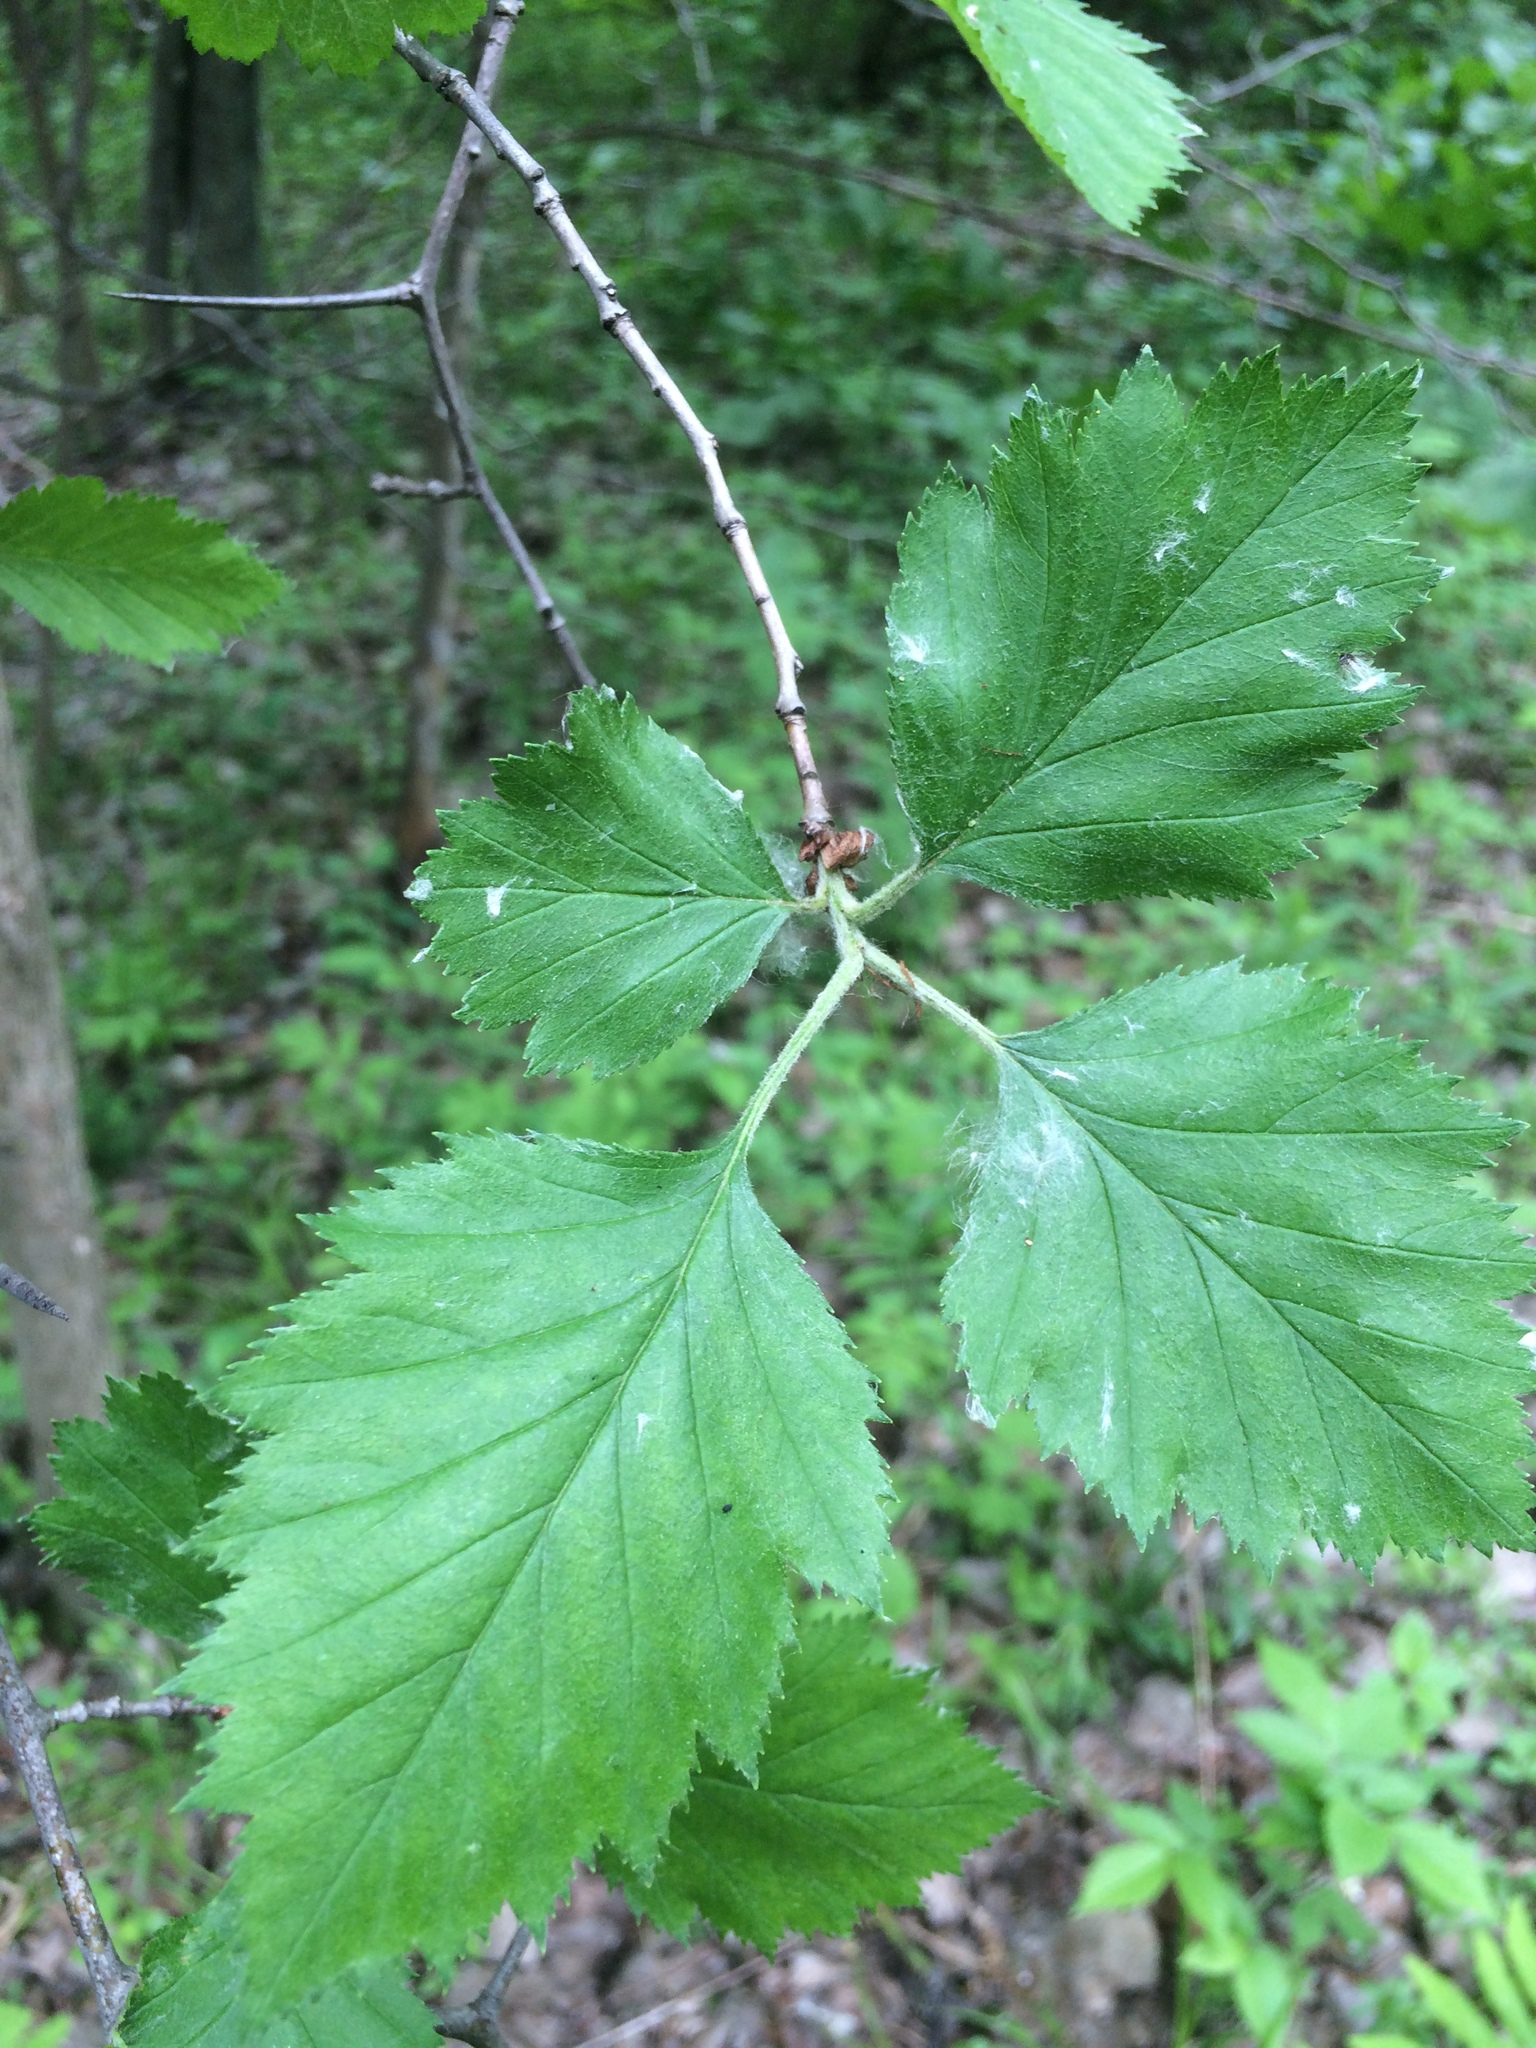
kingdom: Plantae
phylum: Tracheophyta
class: Magnoliopsida
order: Rosales
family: Rosaceae
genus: Crataegus
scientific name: Crataegus submollis
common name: Hairy cockspurthorn
